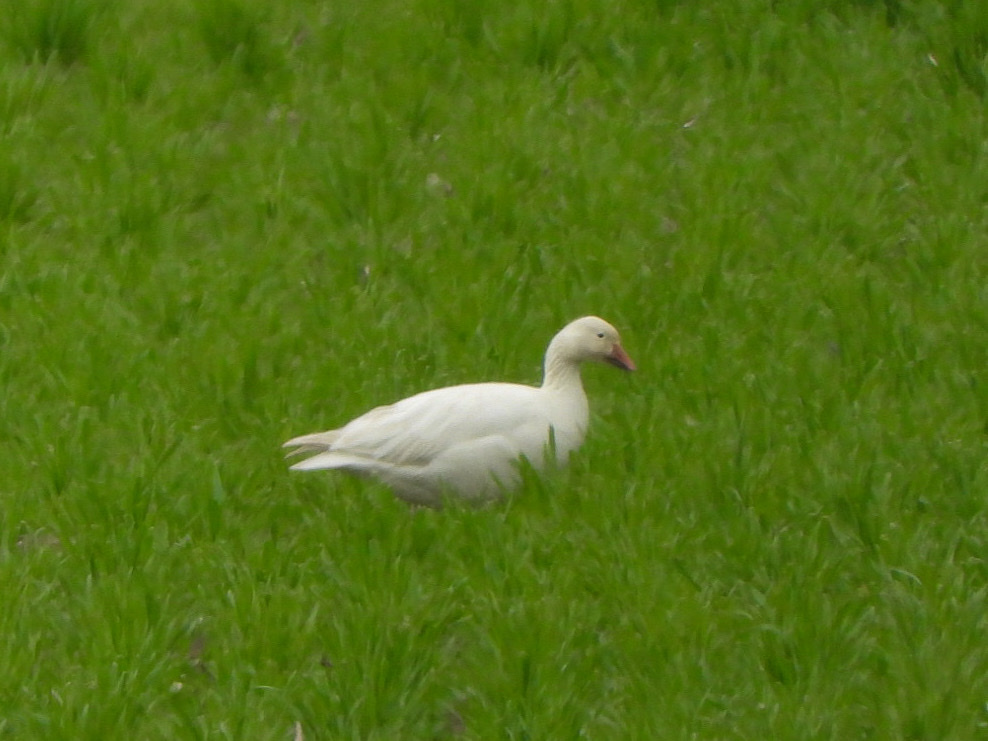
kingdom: Animalia
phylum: Chordata
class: Aves
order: Anseriformes
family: Anatidae
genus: Anser
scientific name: Anser caerulescens
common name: Snow goose
